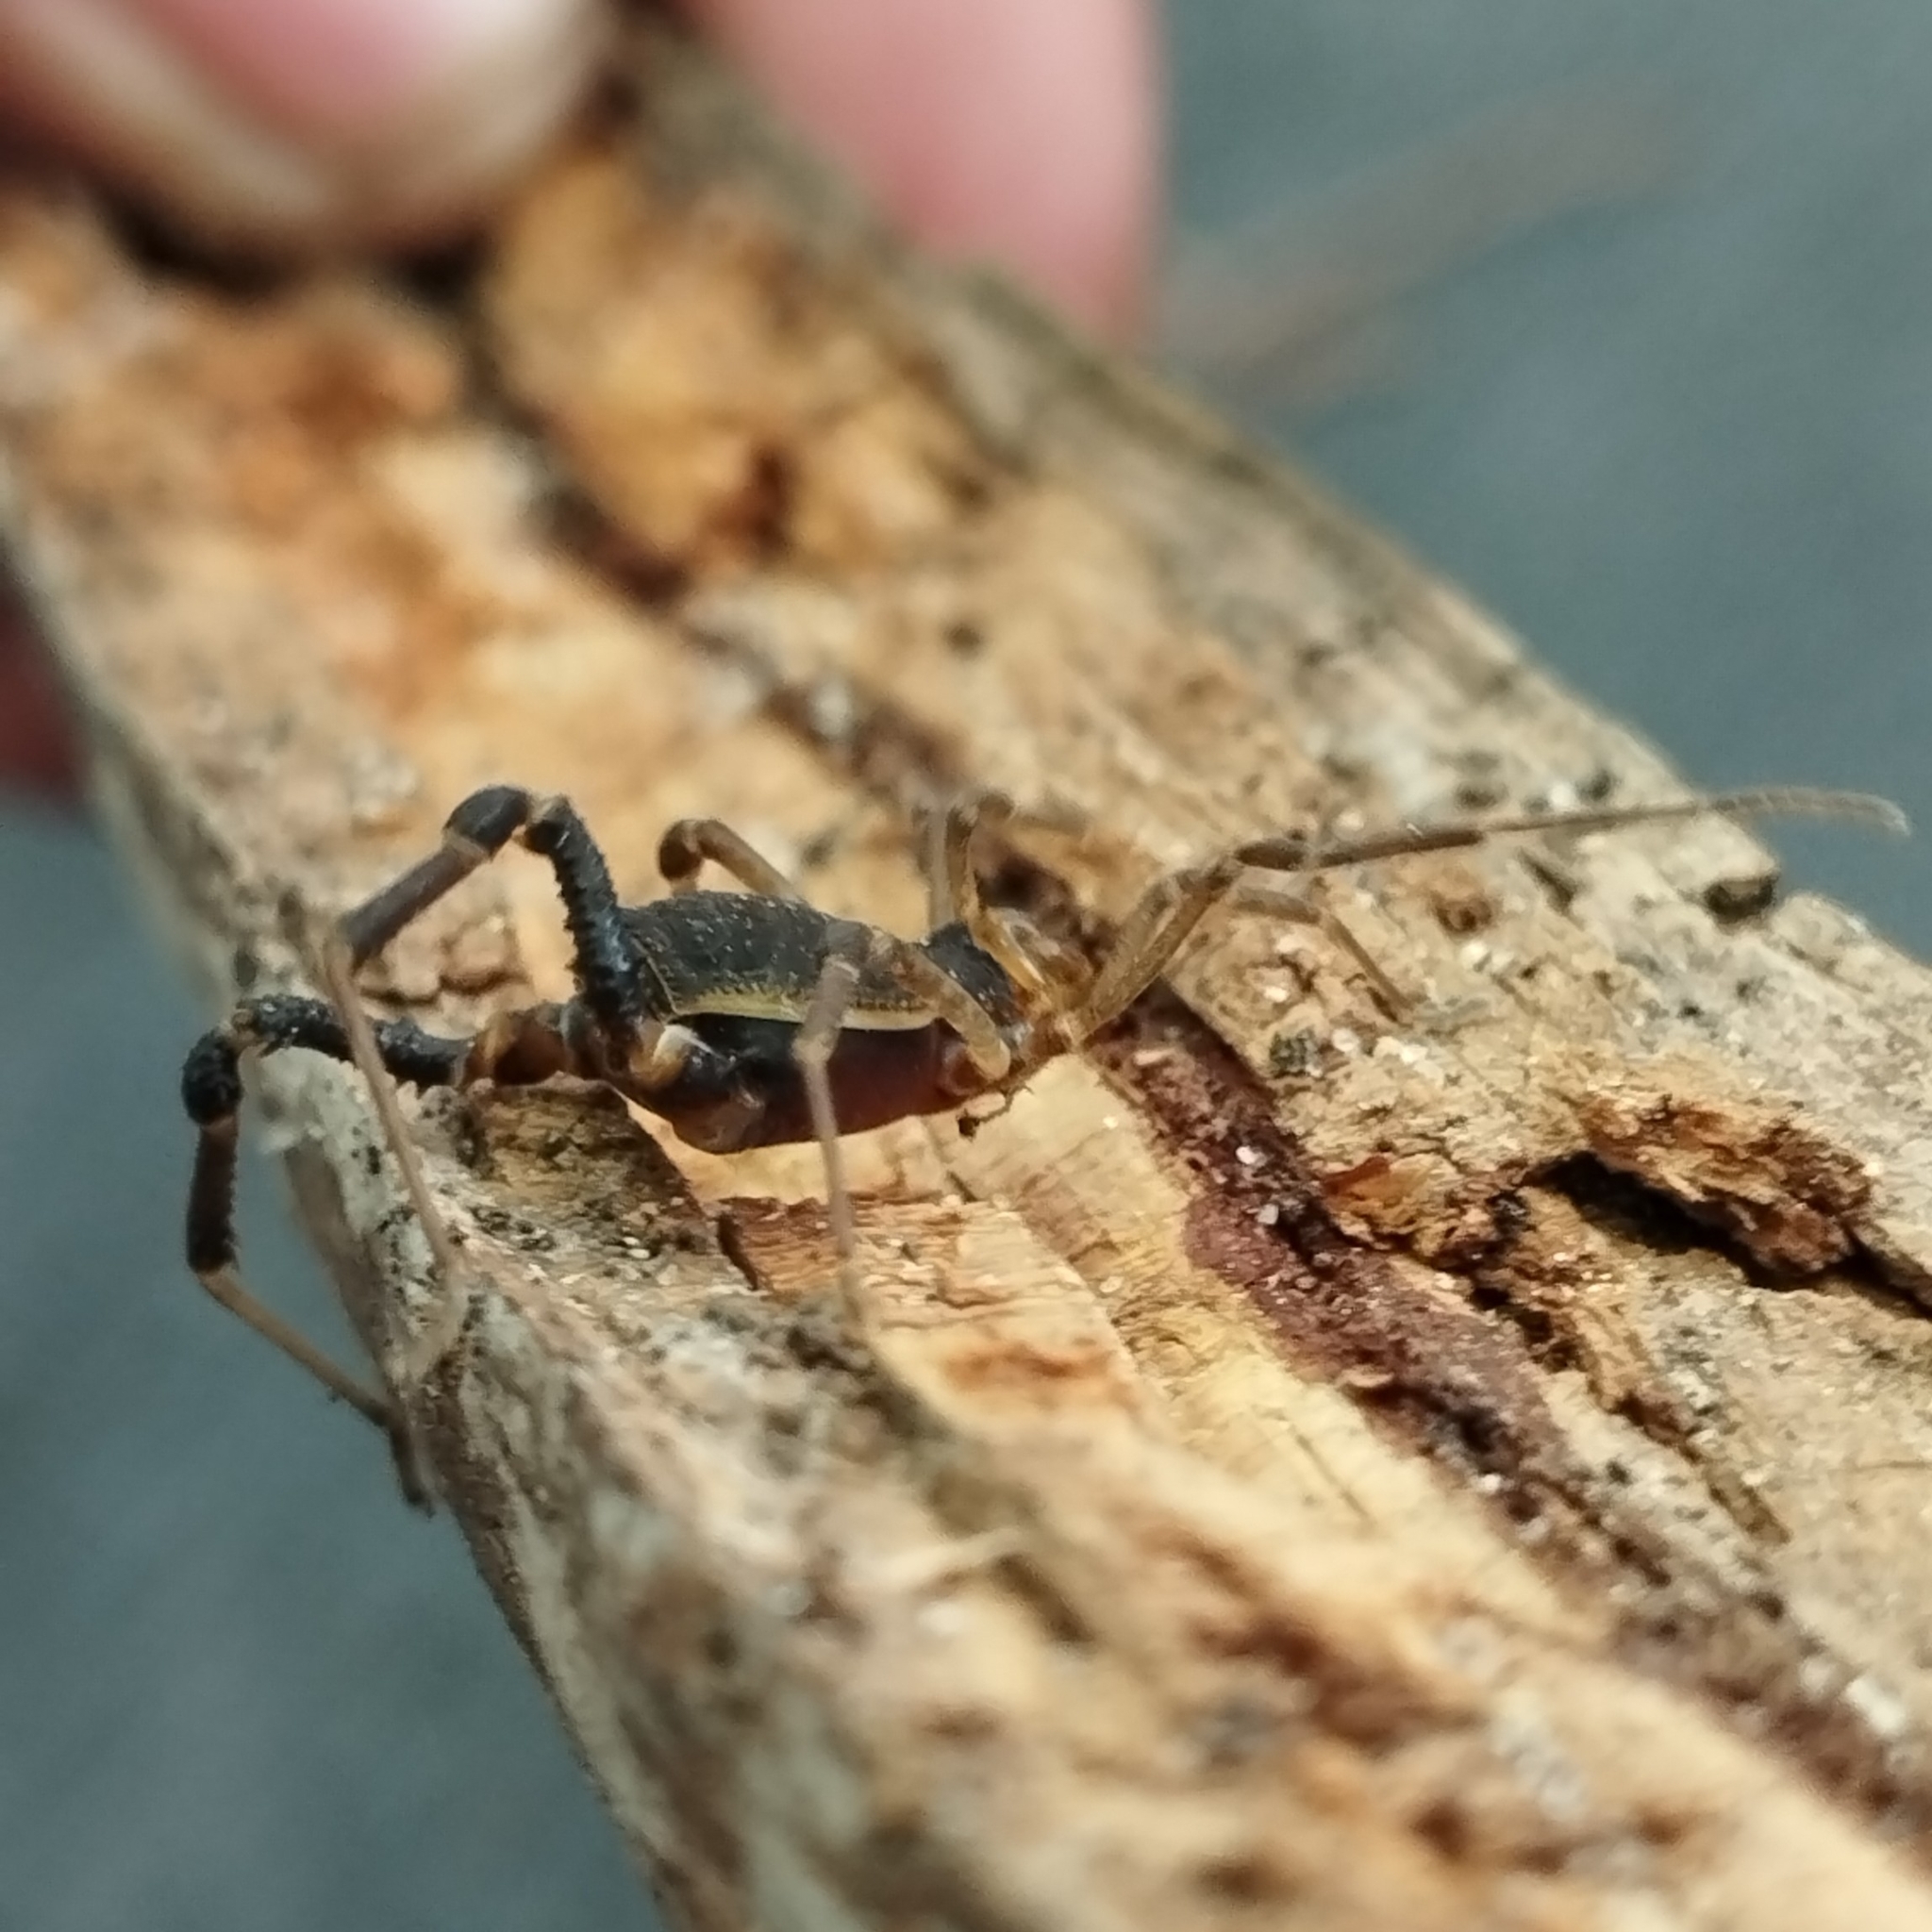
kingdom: Animalia
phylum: Arthropoda
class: Arachnida
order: Opiliones
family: Gonyleptidae
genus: Acanthopachylus
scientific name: Acanthopachylus aculeatus
